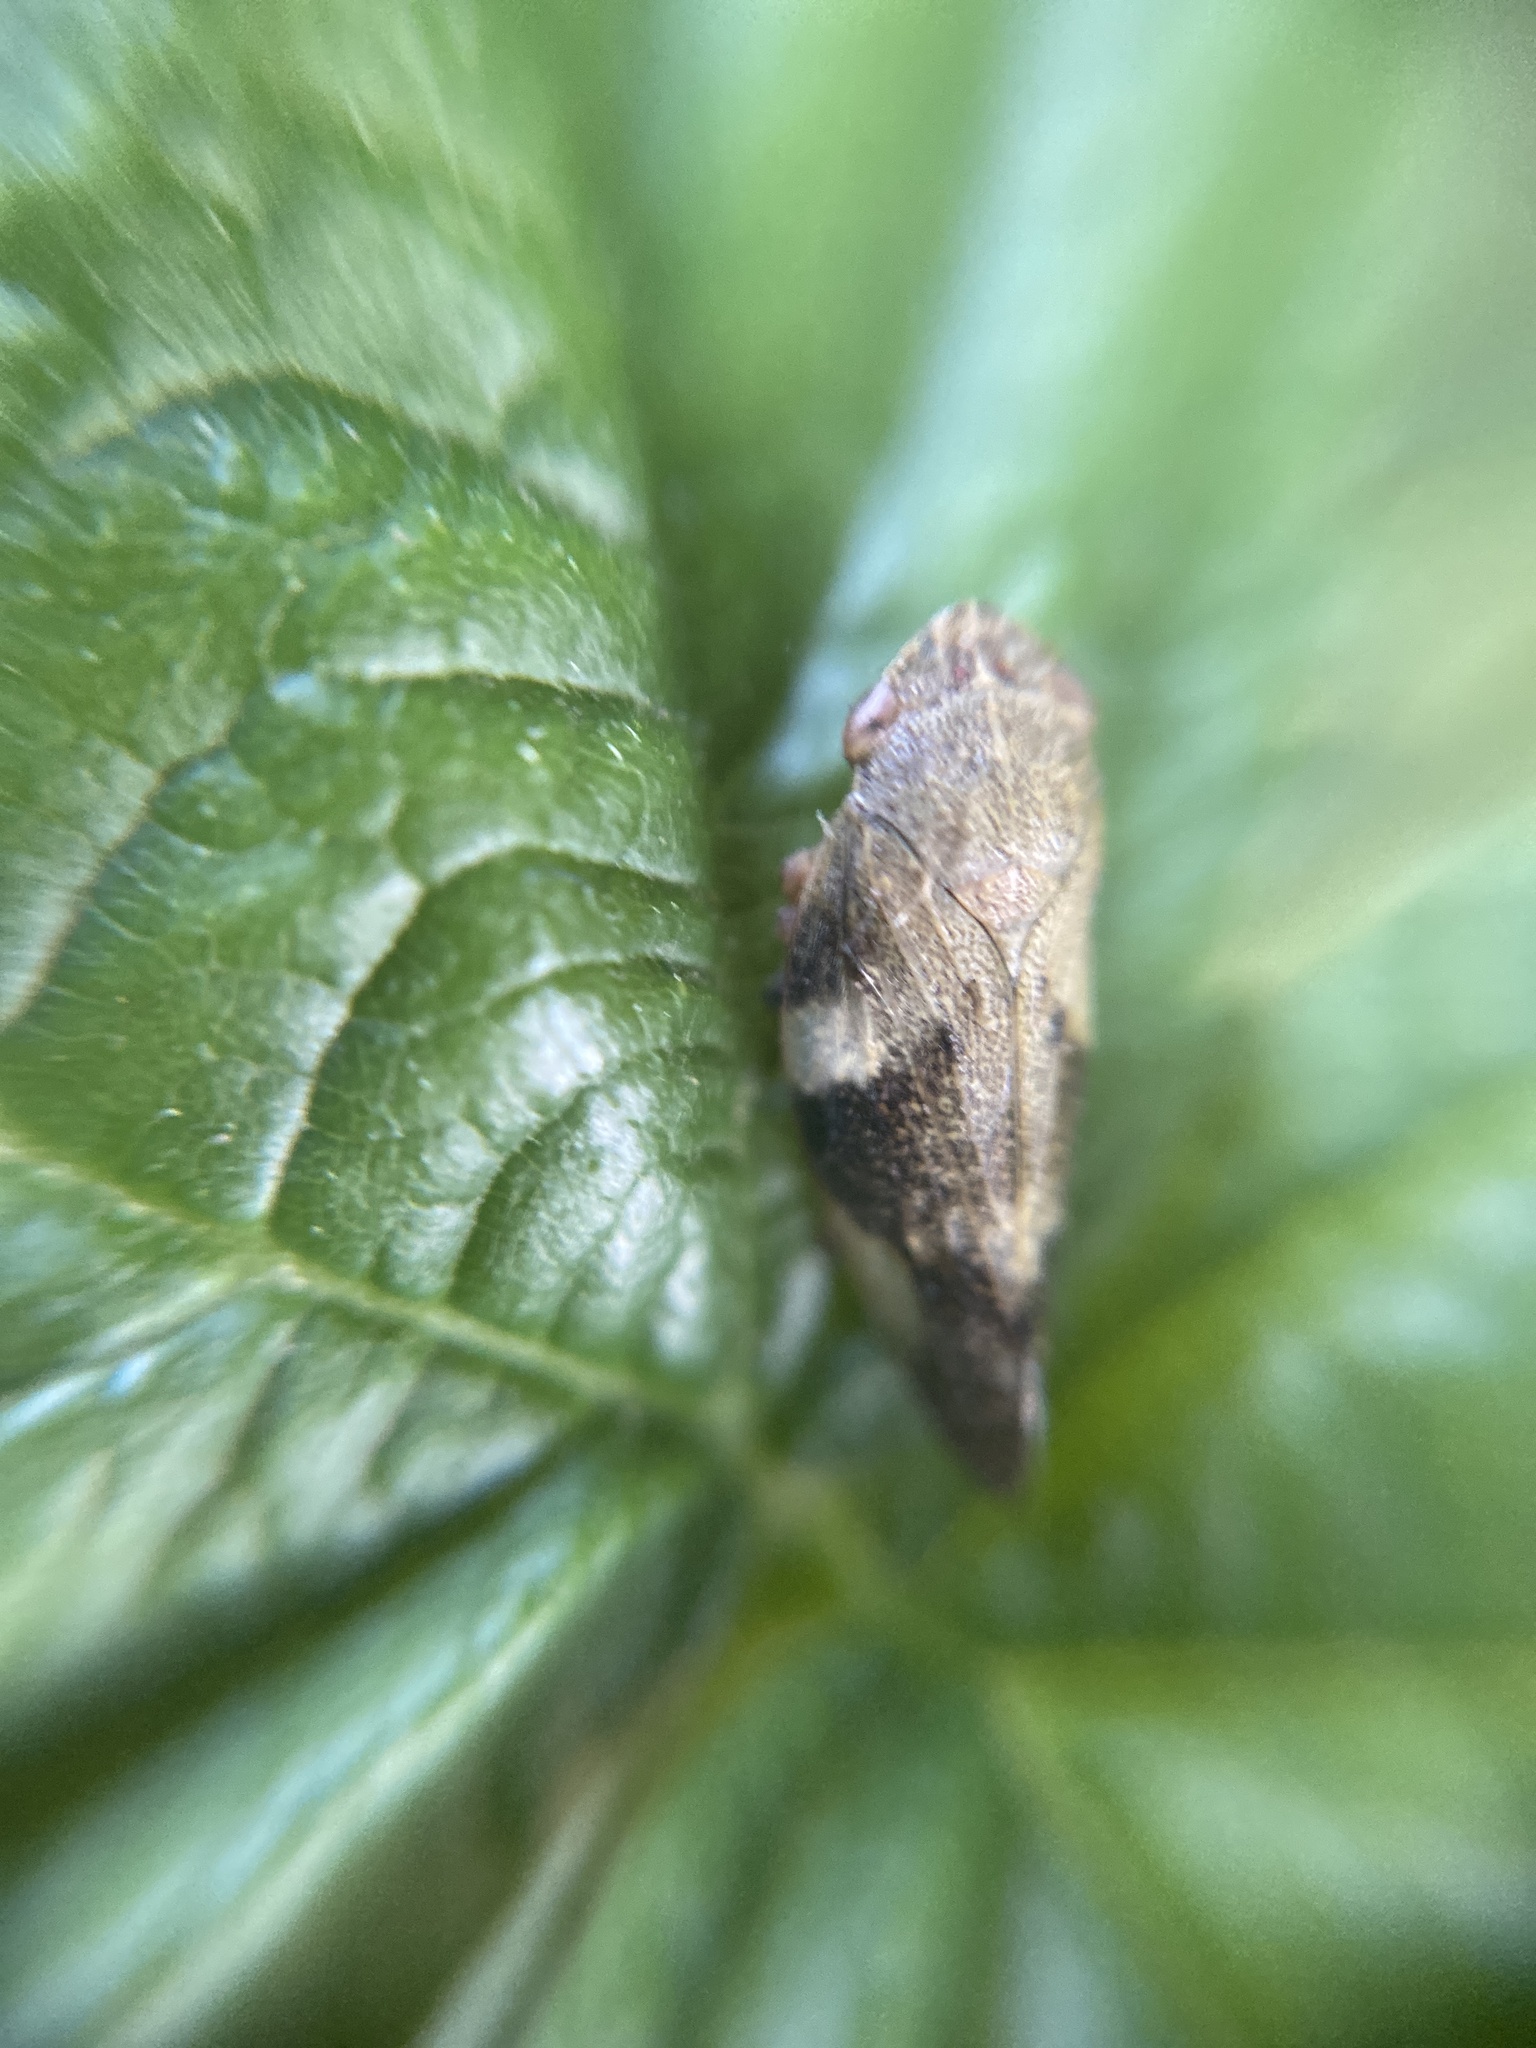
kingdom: Animalia
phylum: Arthropoda
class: Insecta
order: Hemiptera
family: Aphrophoridae
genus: Aphrophora
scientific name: Aphrophora alni
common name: European alder spittlebug
